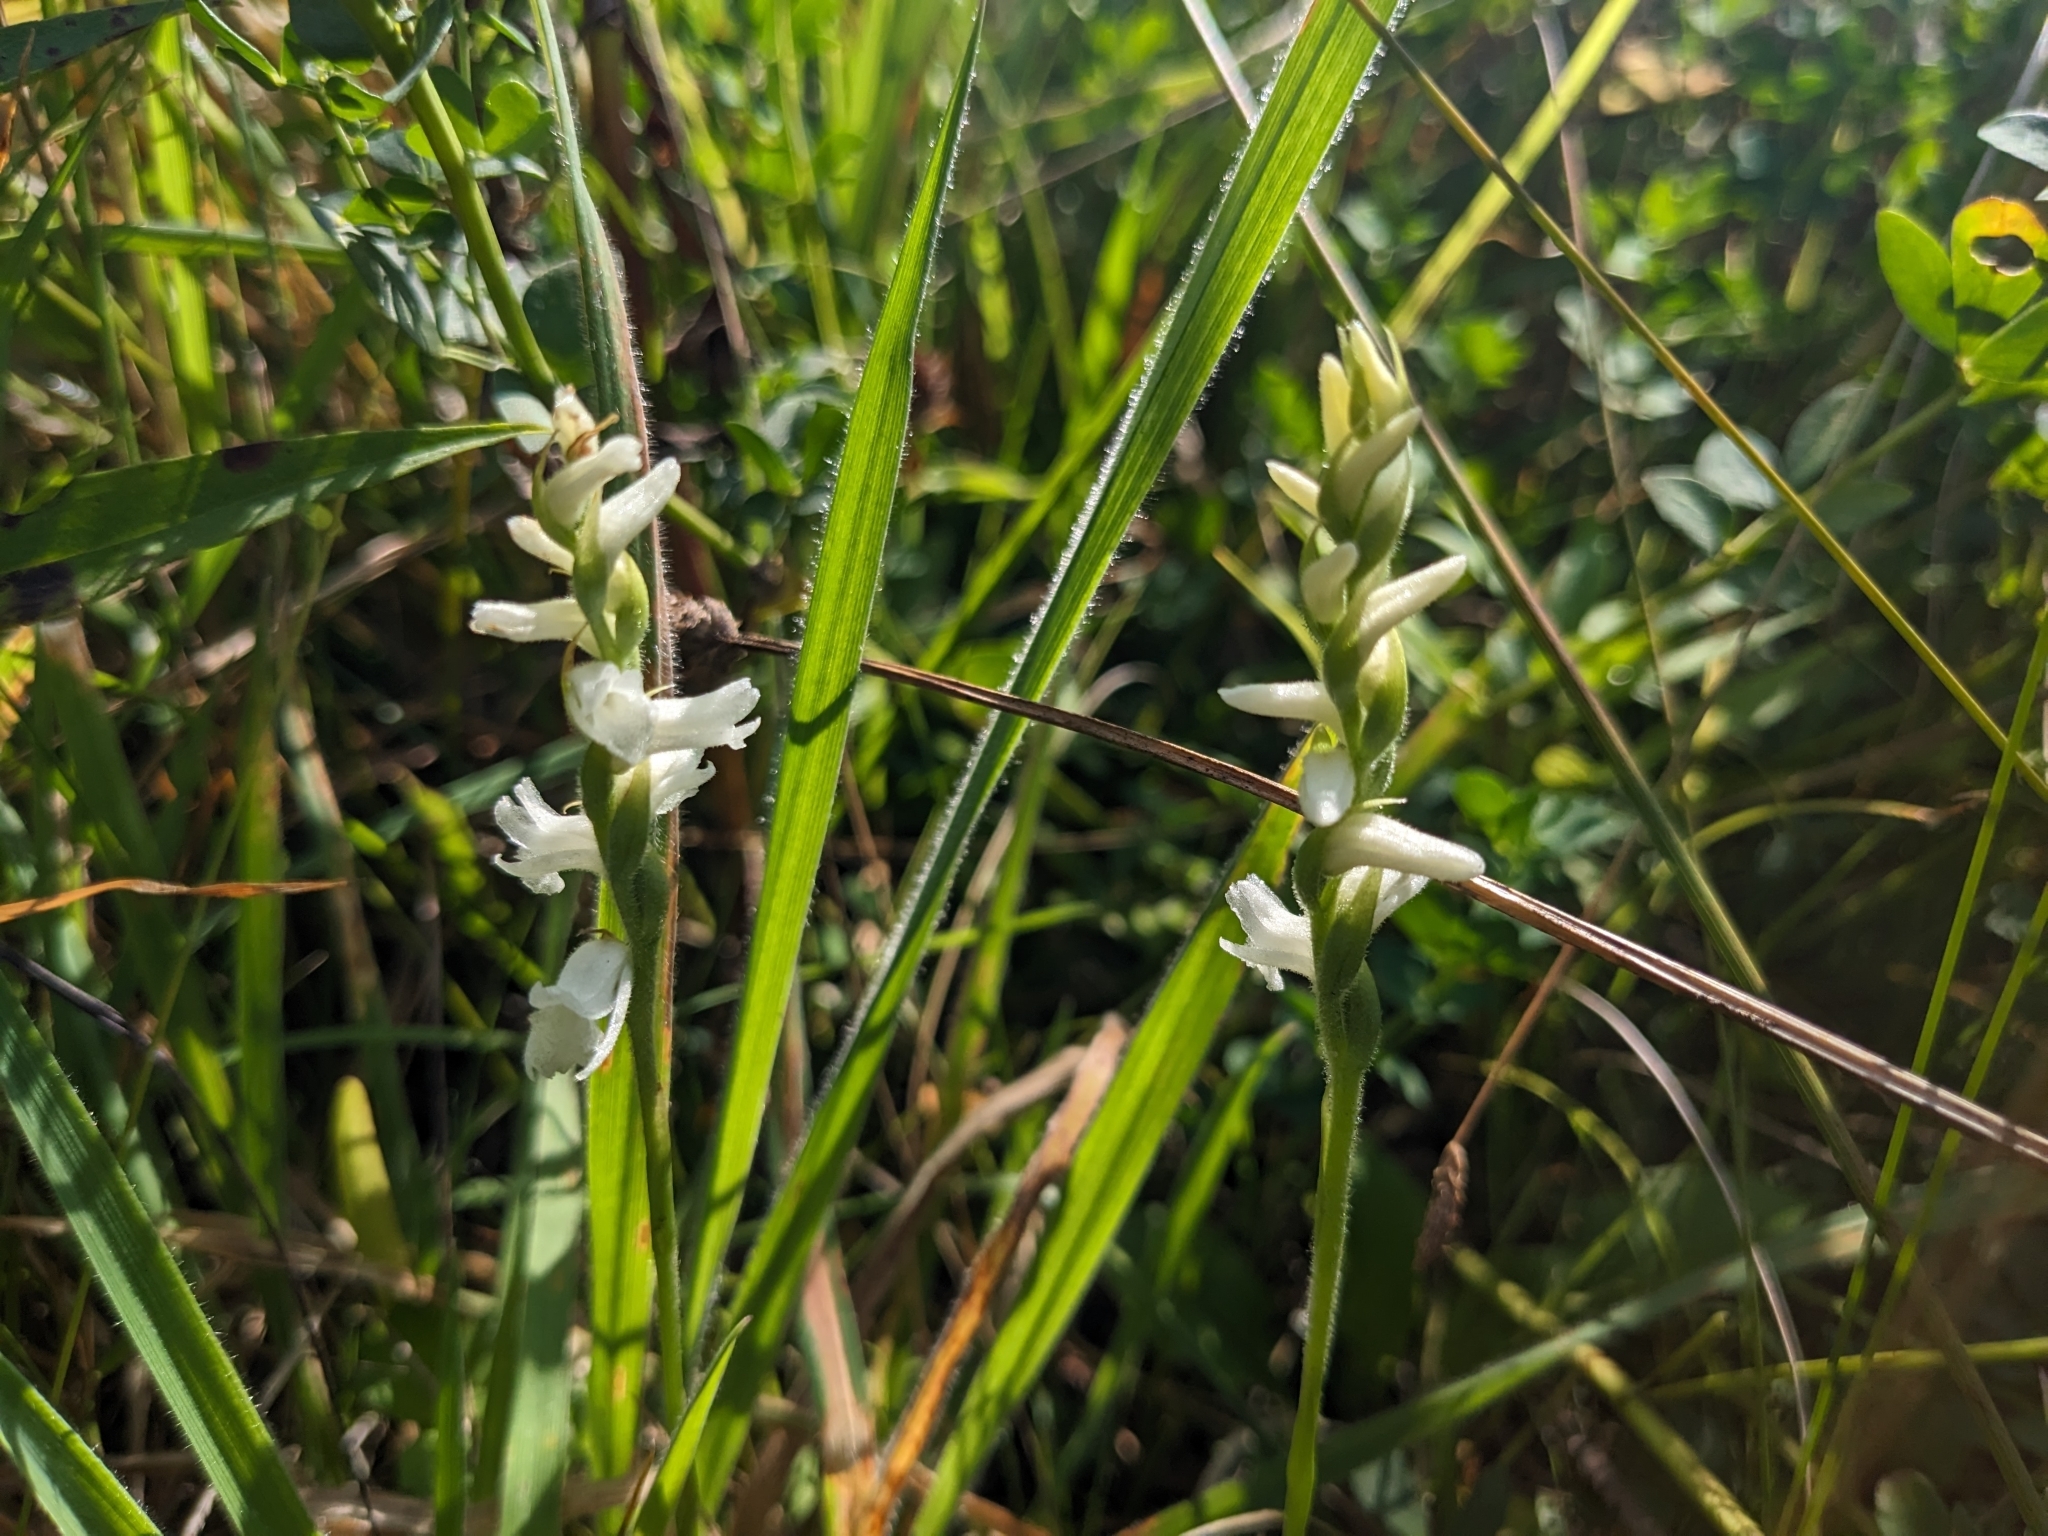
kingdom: Plantae
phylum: Tracheophyta
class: Liliopsida
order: Asparagales
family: Orchidaceae
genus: Spiranthes
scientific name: Spiranthes arcisepala
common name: Appalachian ladies'-tresses
